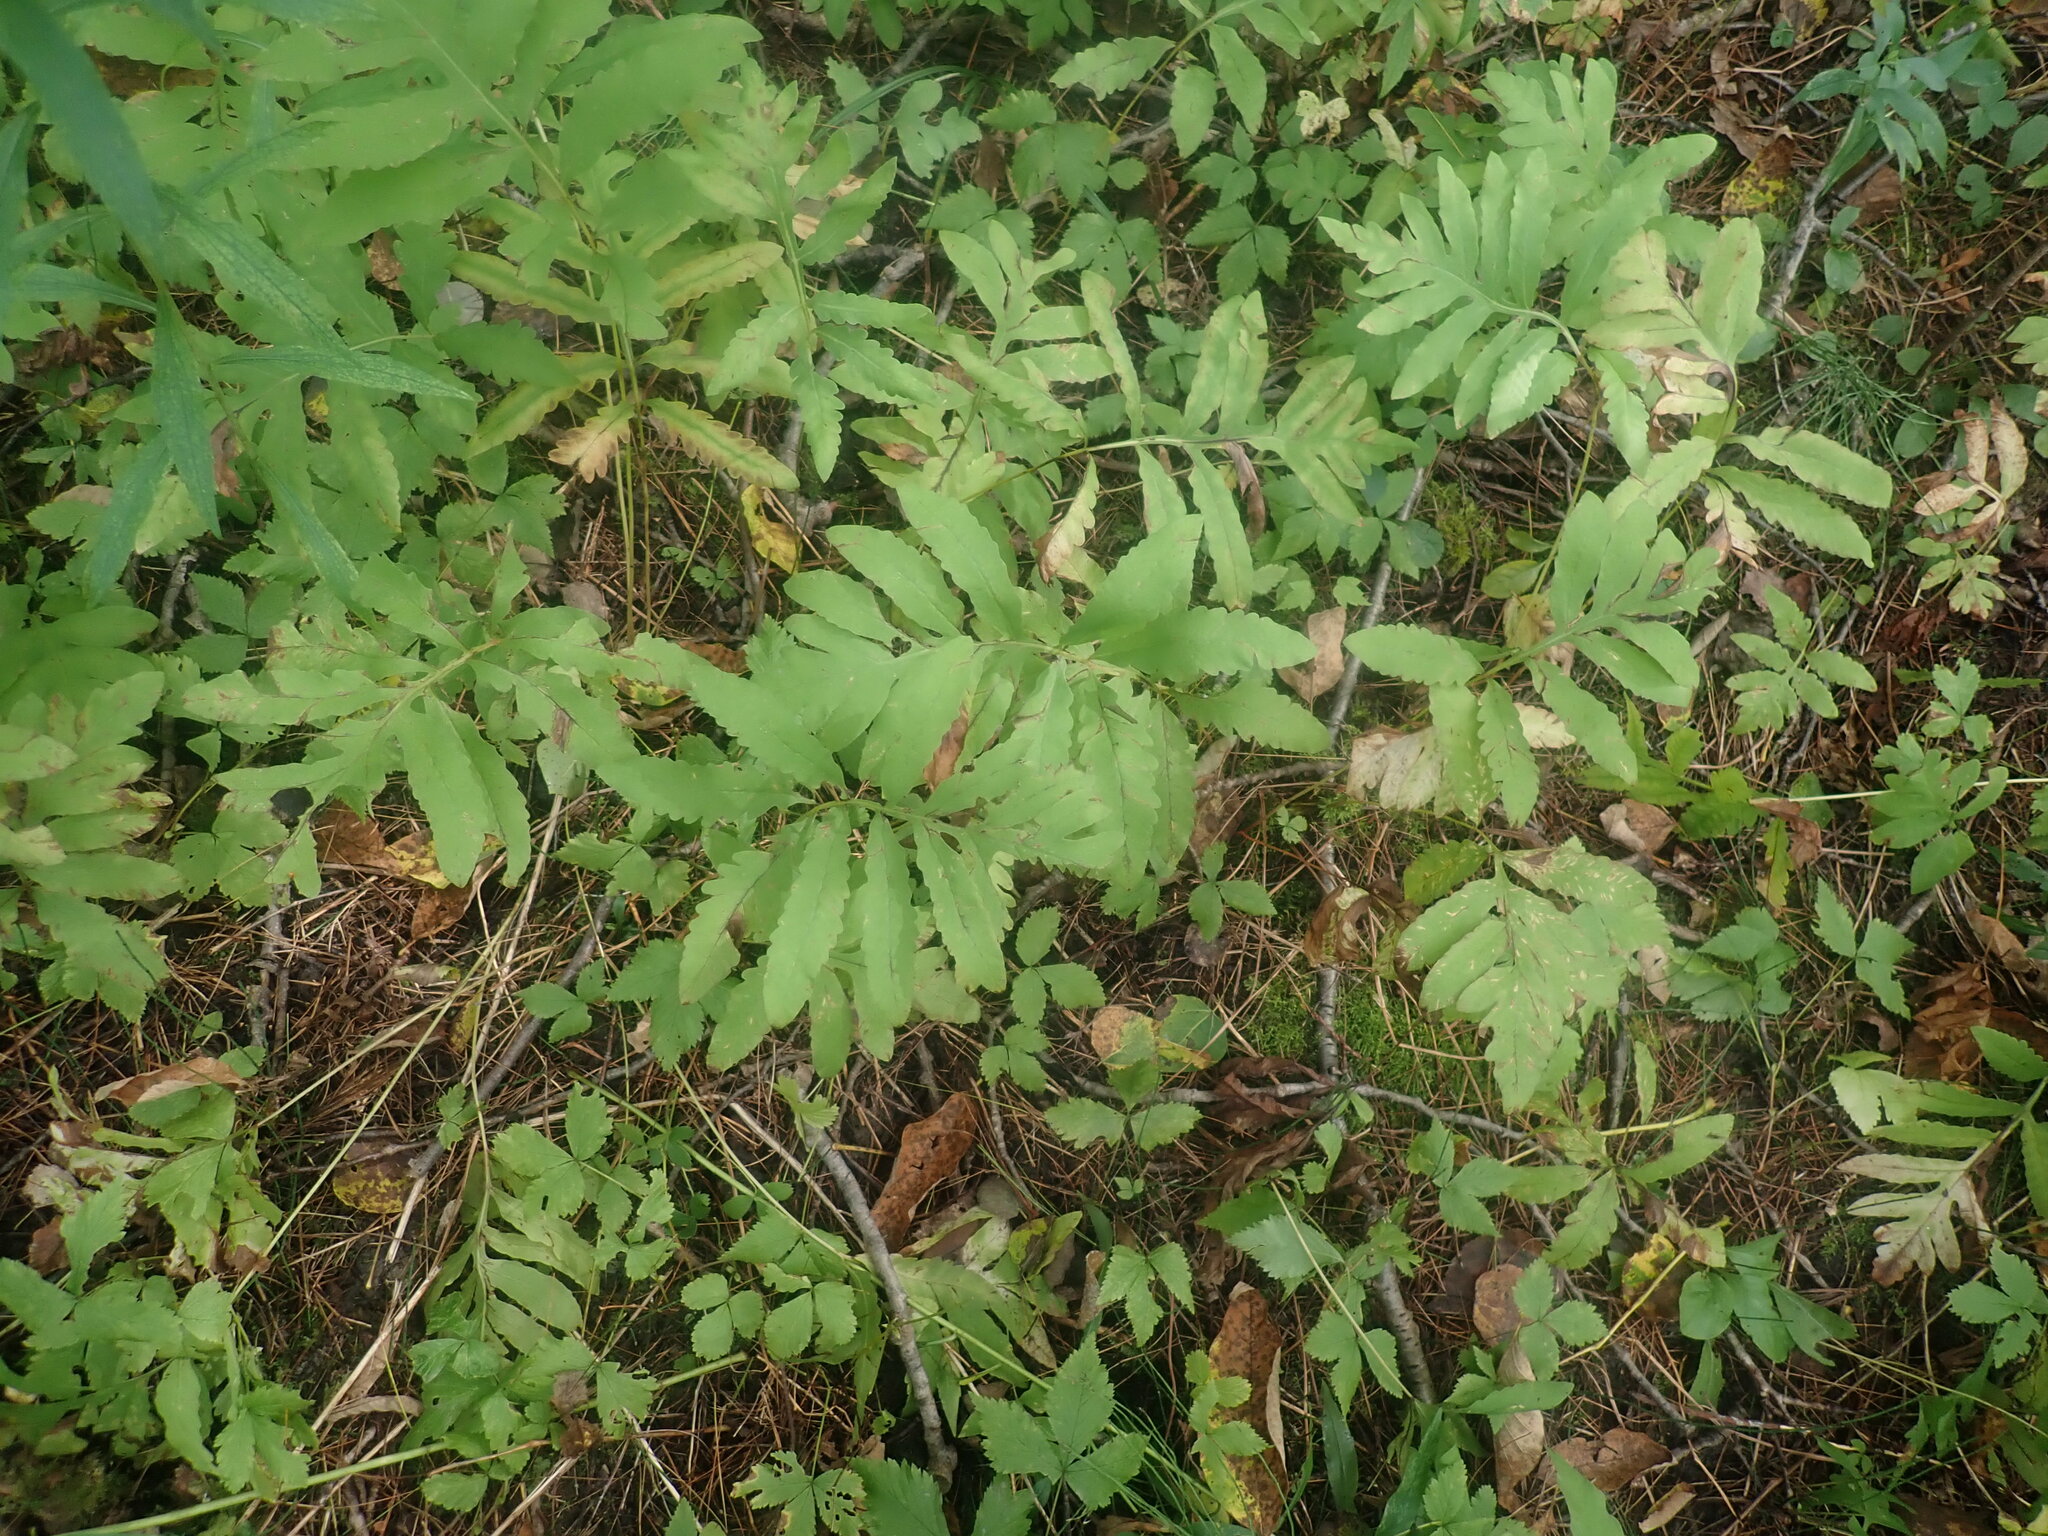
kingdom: Plantae
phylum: Tracheophyta
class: Polypodiopsida
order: Polypodiales
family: Onocleaceae
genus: Onoclea
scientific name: Onoclea sensibilis
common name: Sensitive fern
